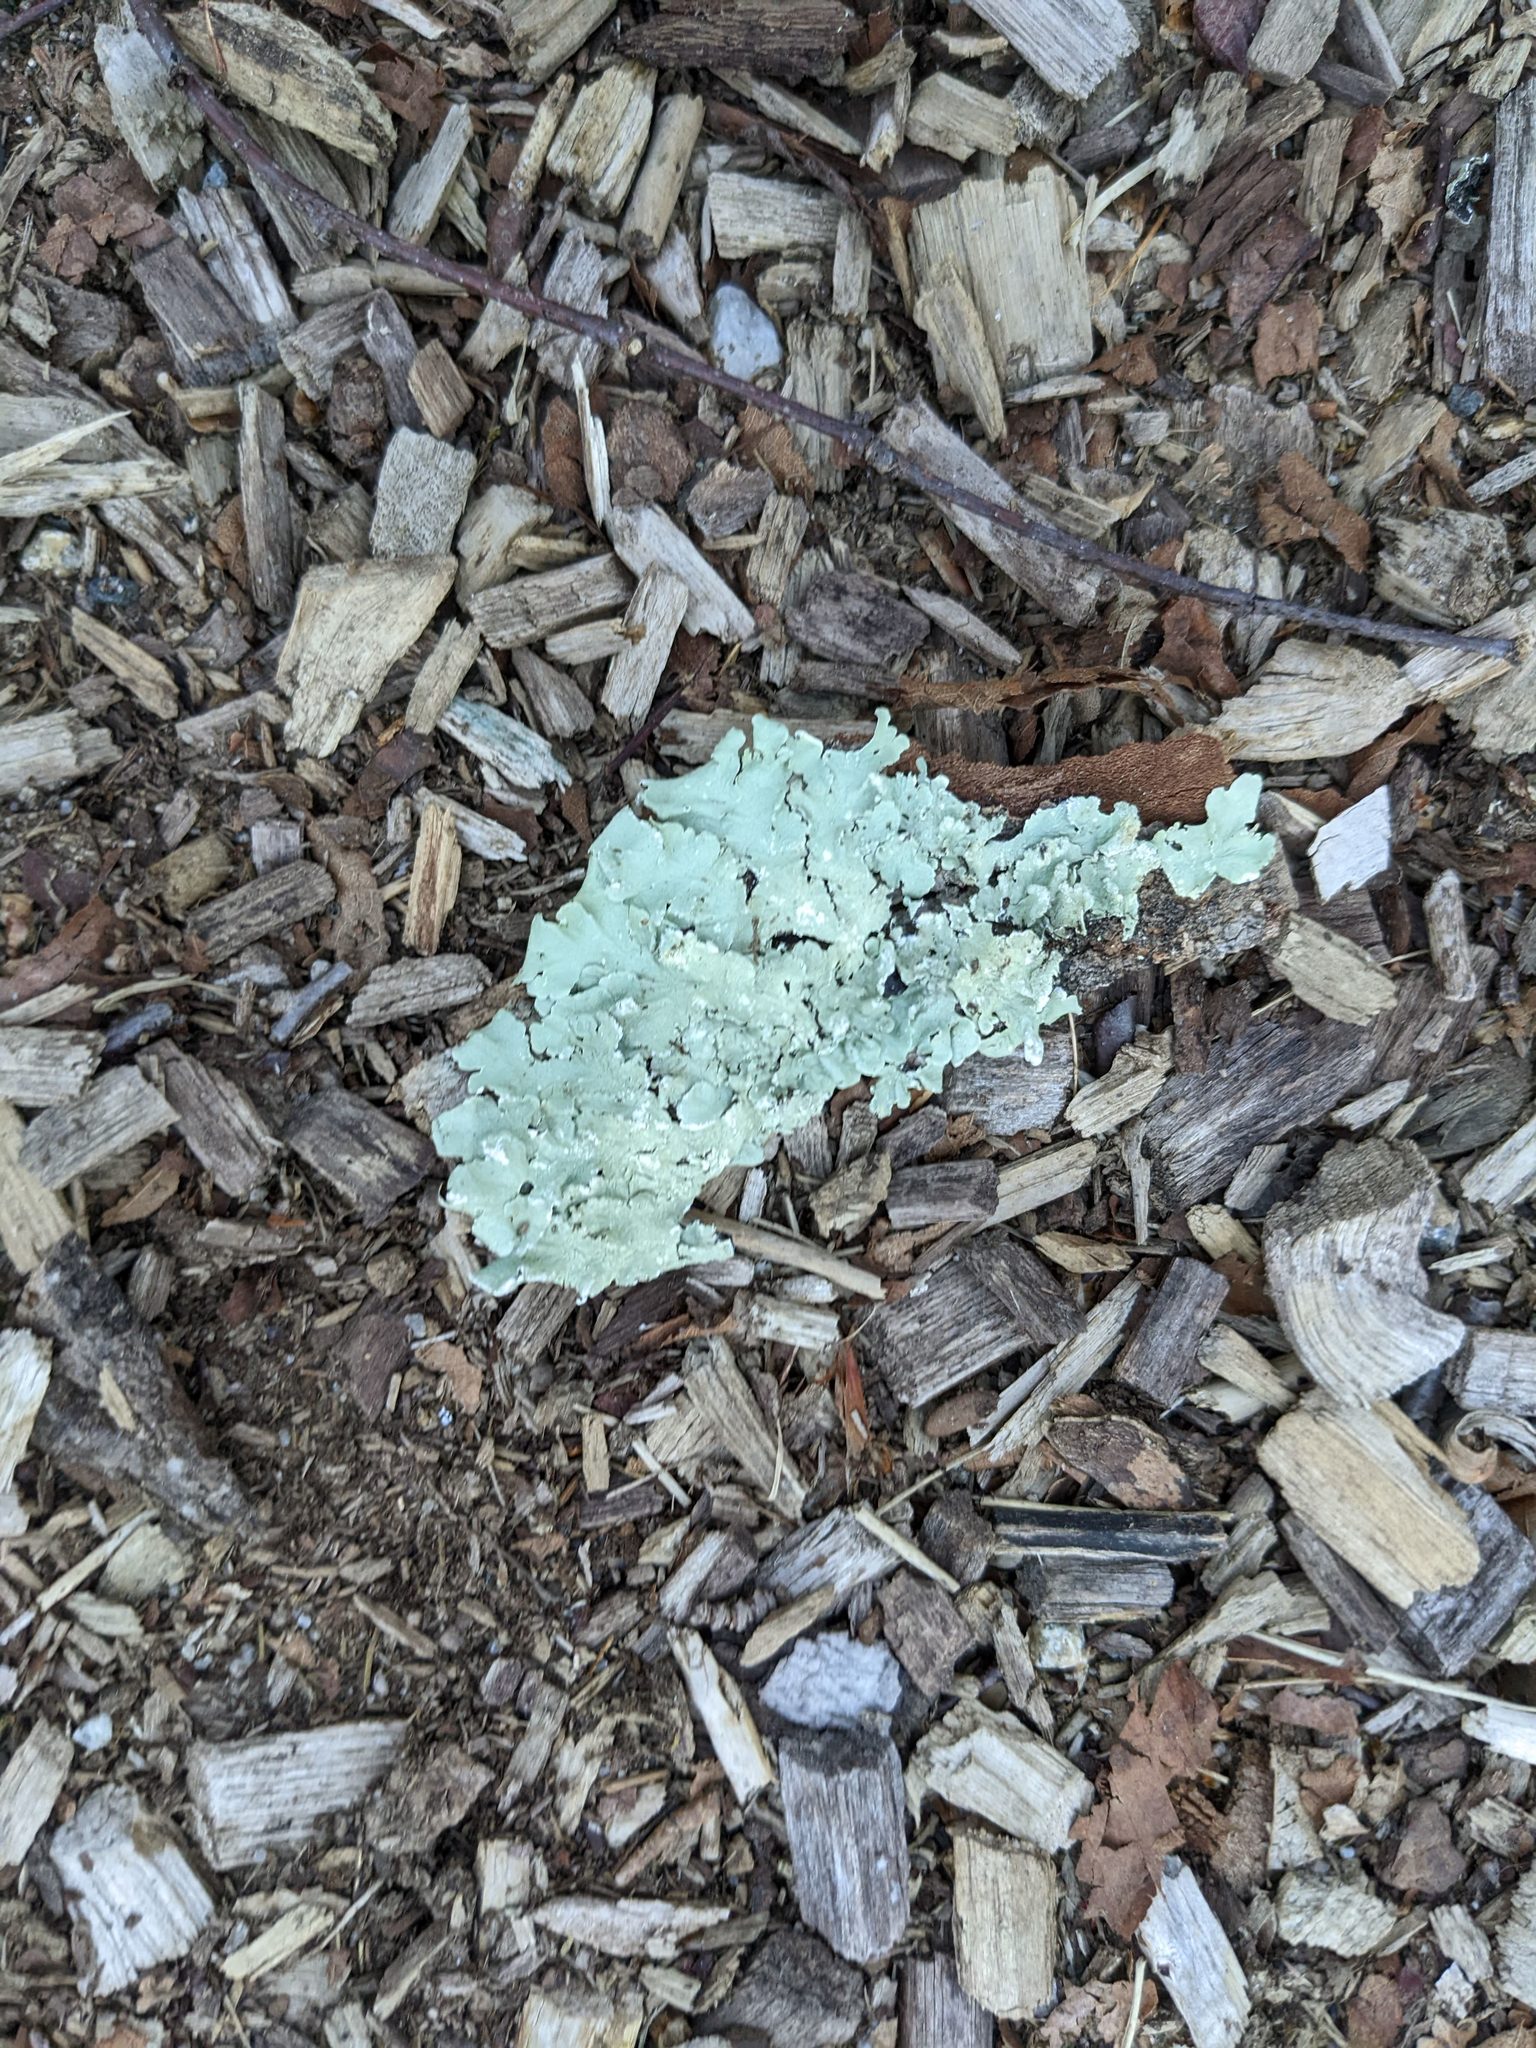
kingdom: Fungi
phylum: Ascomycota
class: Lecanoromycetes
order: Lecanorales
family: Parmeliaceae
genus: Flavoparmelia
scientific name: Flavoparmelia caperata
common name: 40-mile per hour lichen
